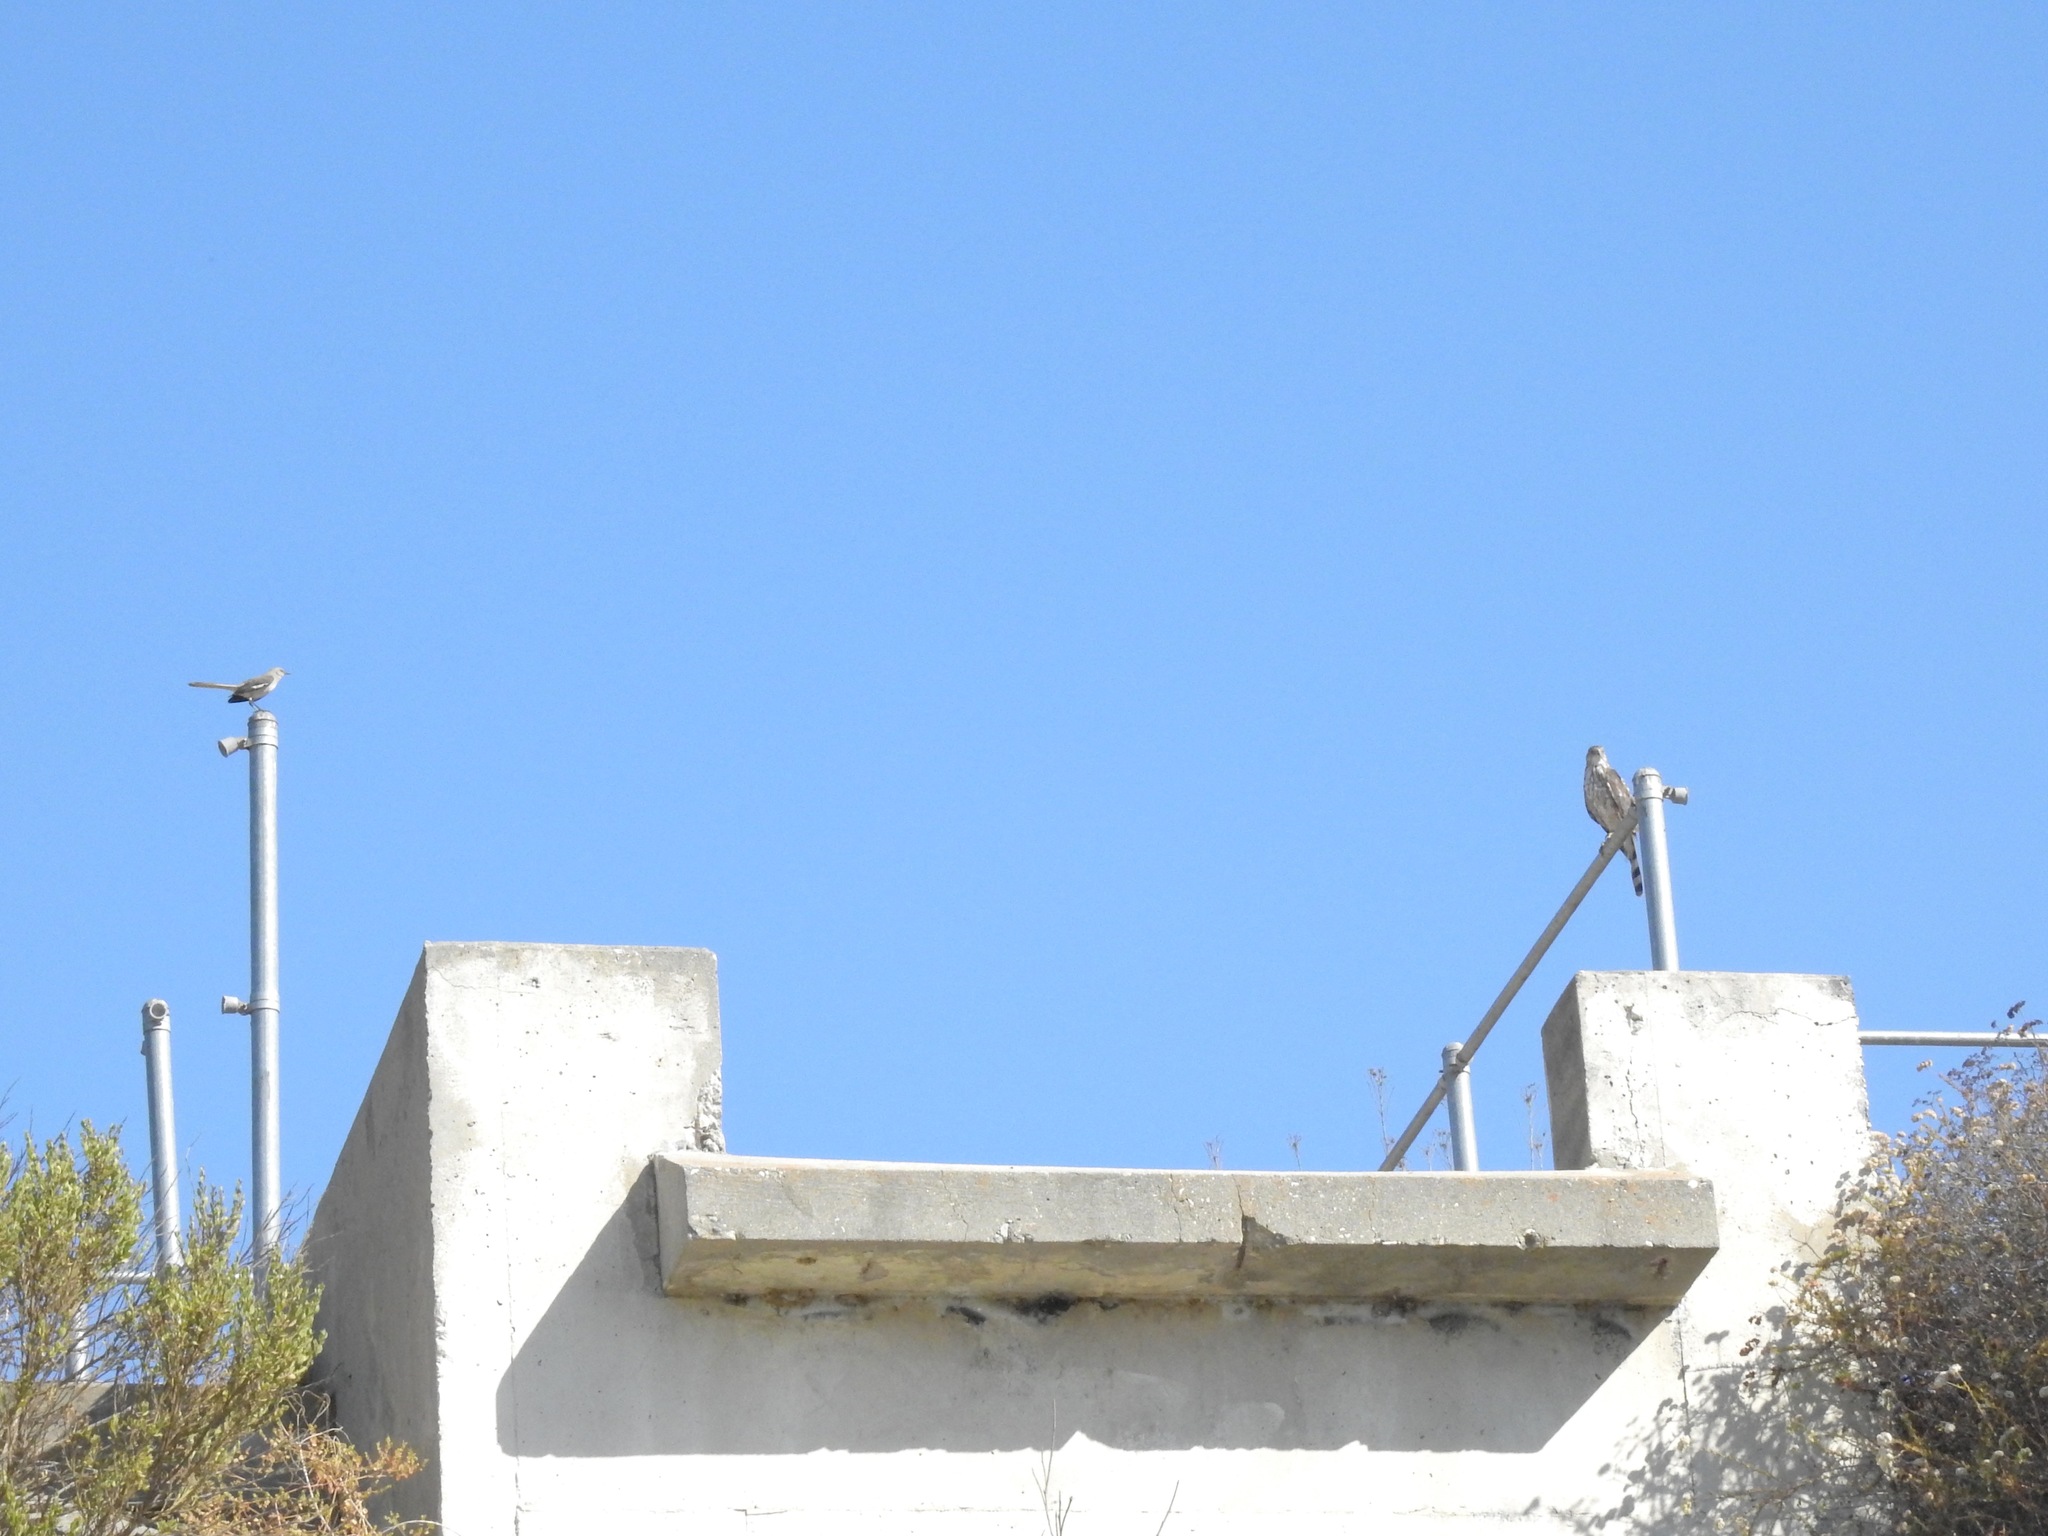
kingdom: Animalia
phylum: Chordata
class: Aves
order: Passeriformes
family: Mimidae
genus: Mimus
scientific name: Mimus polyglottos
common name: Northern mockingbird
